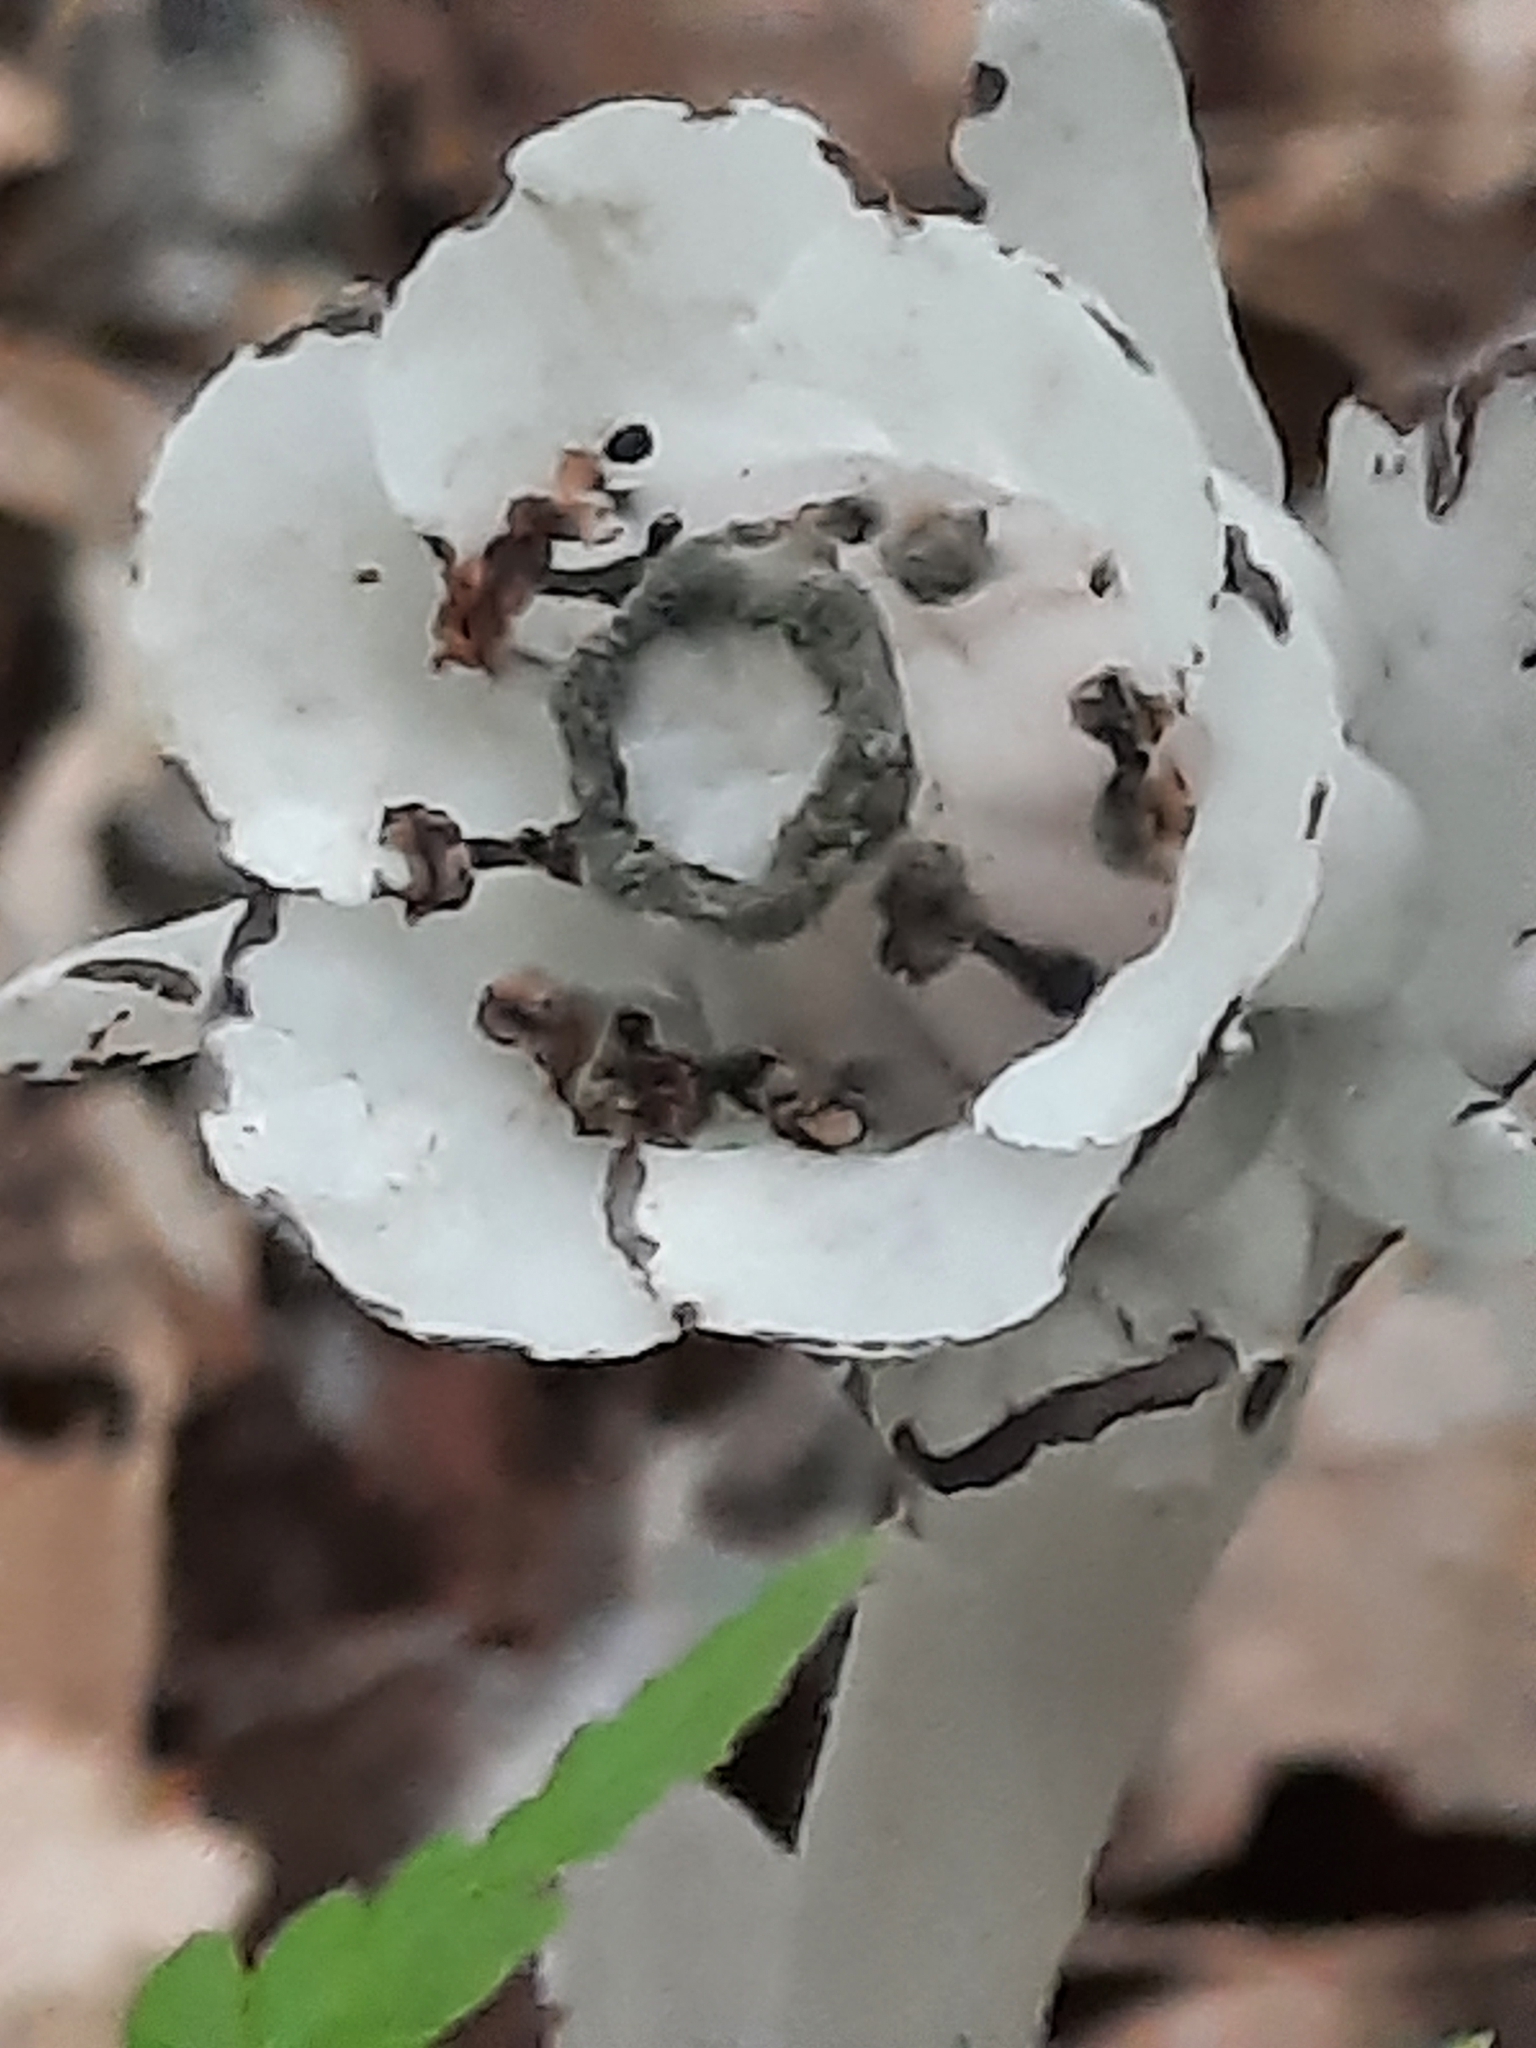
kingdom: Plantae
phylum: Tracheophyta
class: Magnoliopsida
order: Ericales
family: Ericaceae
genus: Monotropa
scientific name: Monotropa uniflora
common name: Convulsion root
